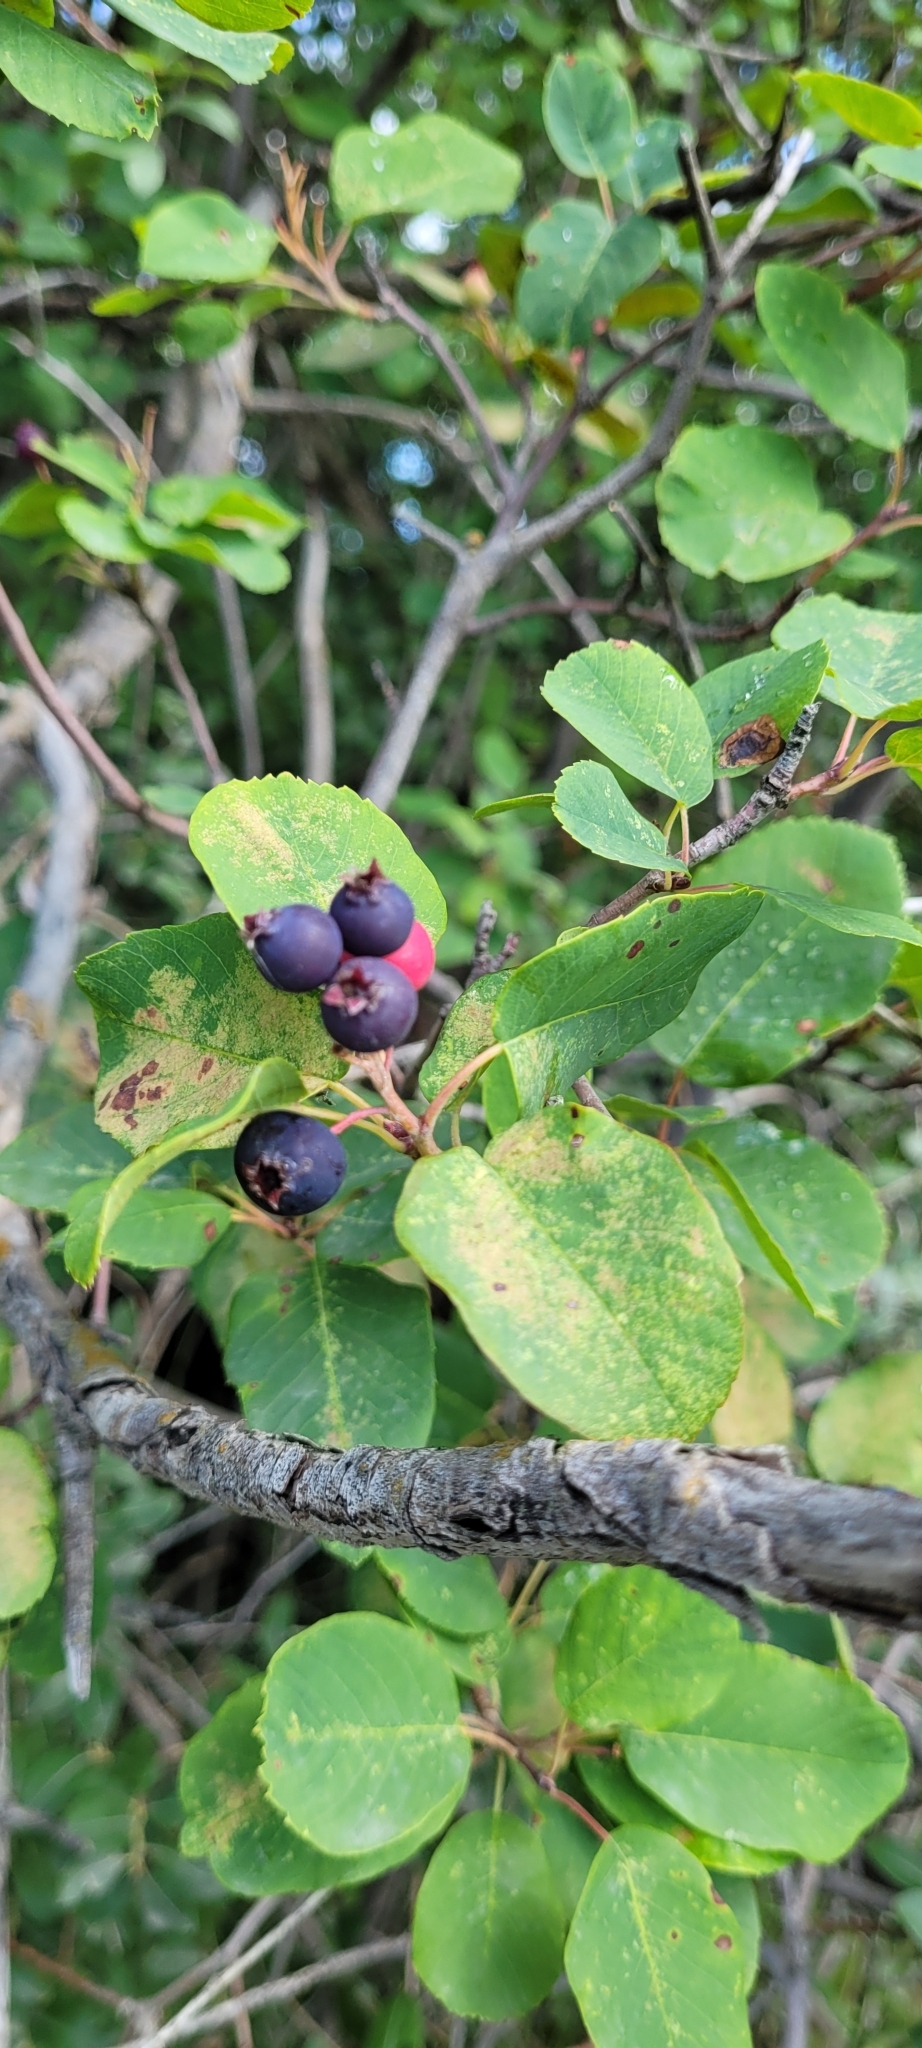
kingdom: Plantae
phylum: Tracheophyta
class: Magnoliopsida
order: Rosales
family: Rosaceae
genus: Amelanchier
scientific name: Amelanchier alnifolia
